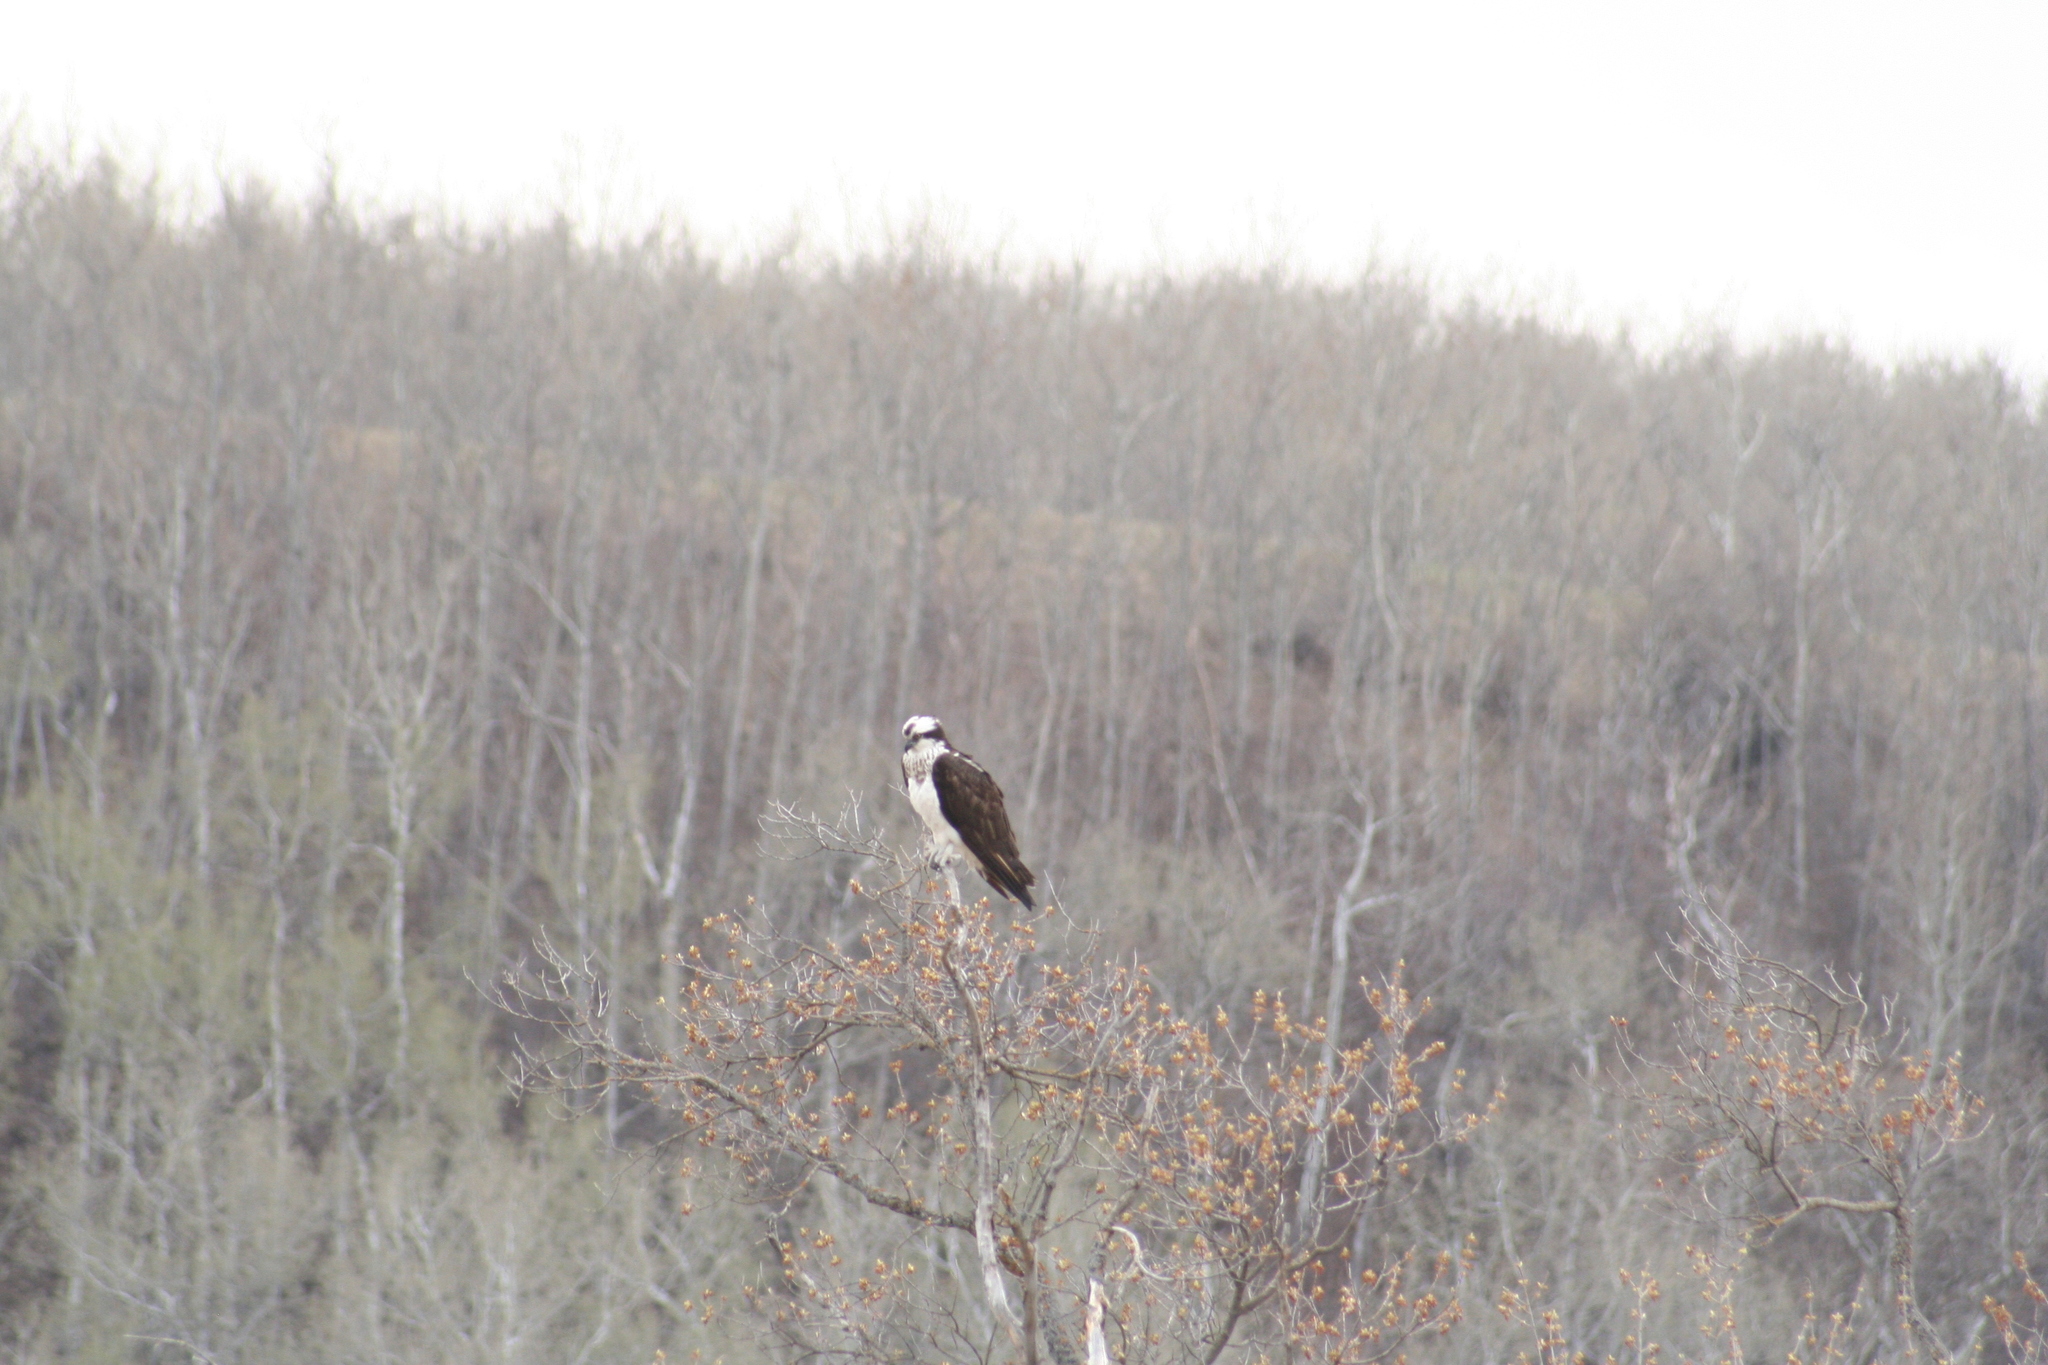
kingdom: Animalia
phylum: Chordata
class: Aves
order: Accipitriformes
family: Pandionidae
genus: Pandion
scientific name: Pandion haliaetus
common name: Osprey
